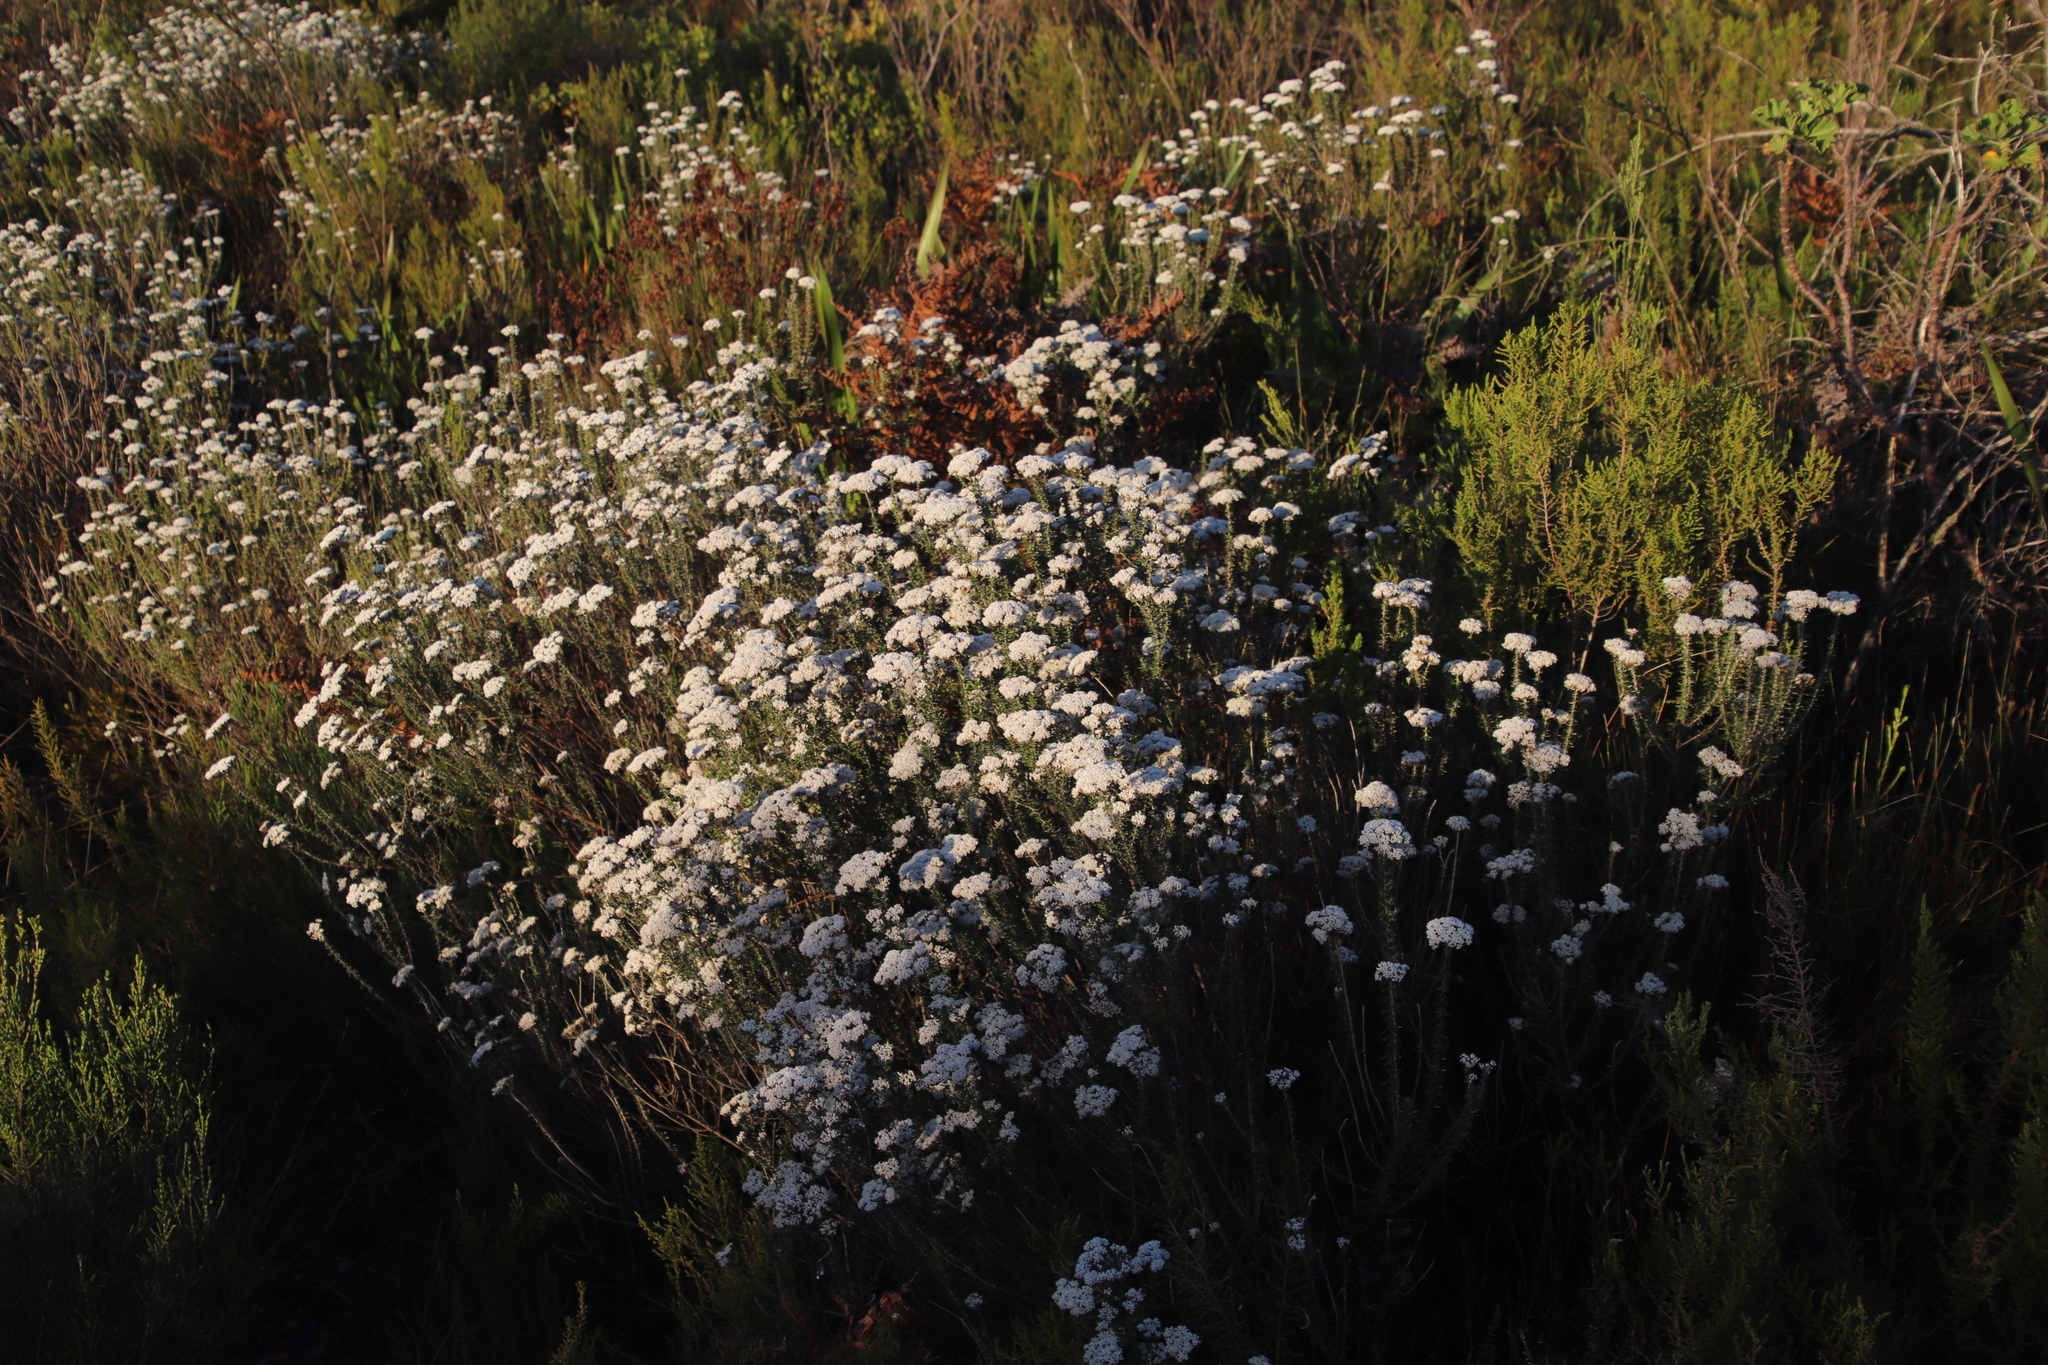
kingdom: Plantae
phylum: Tracheophyta
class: Magnoliopsida
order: Asterales
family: Asteraceae
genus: Metalasia
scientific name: Metalasia densa
